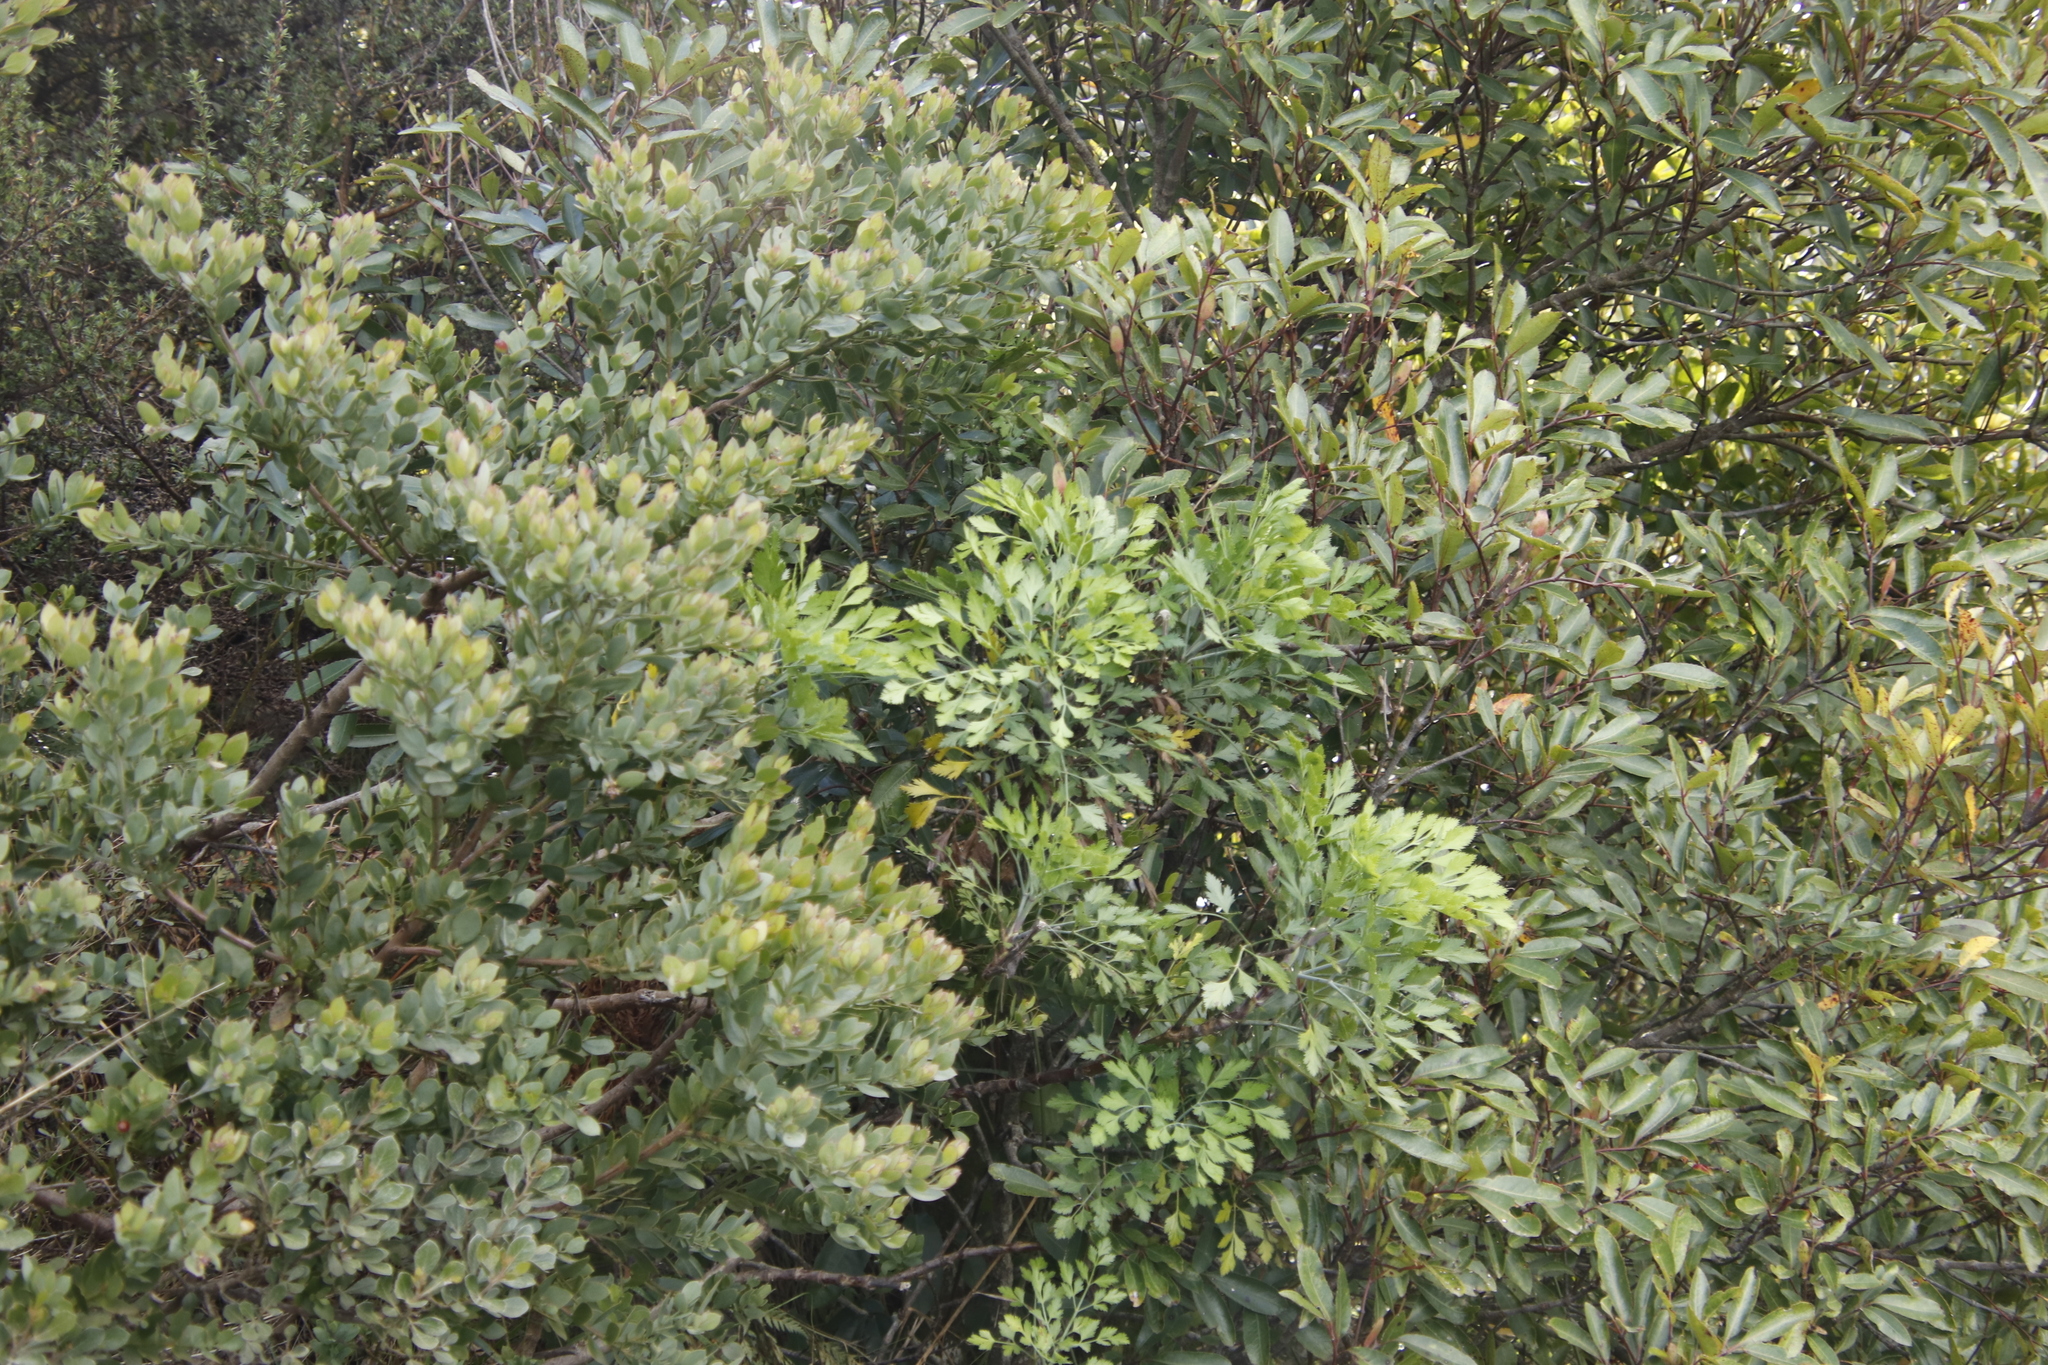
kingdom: Plantae
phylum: Tracheophyta
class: Magnoliopsida
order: Apiales
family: Apiaceae
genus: Notobubon
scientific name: Notobubon galbanum
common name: Blisterbush
